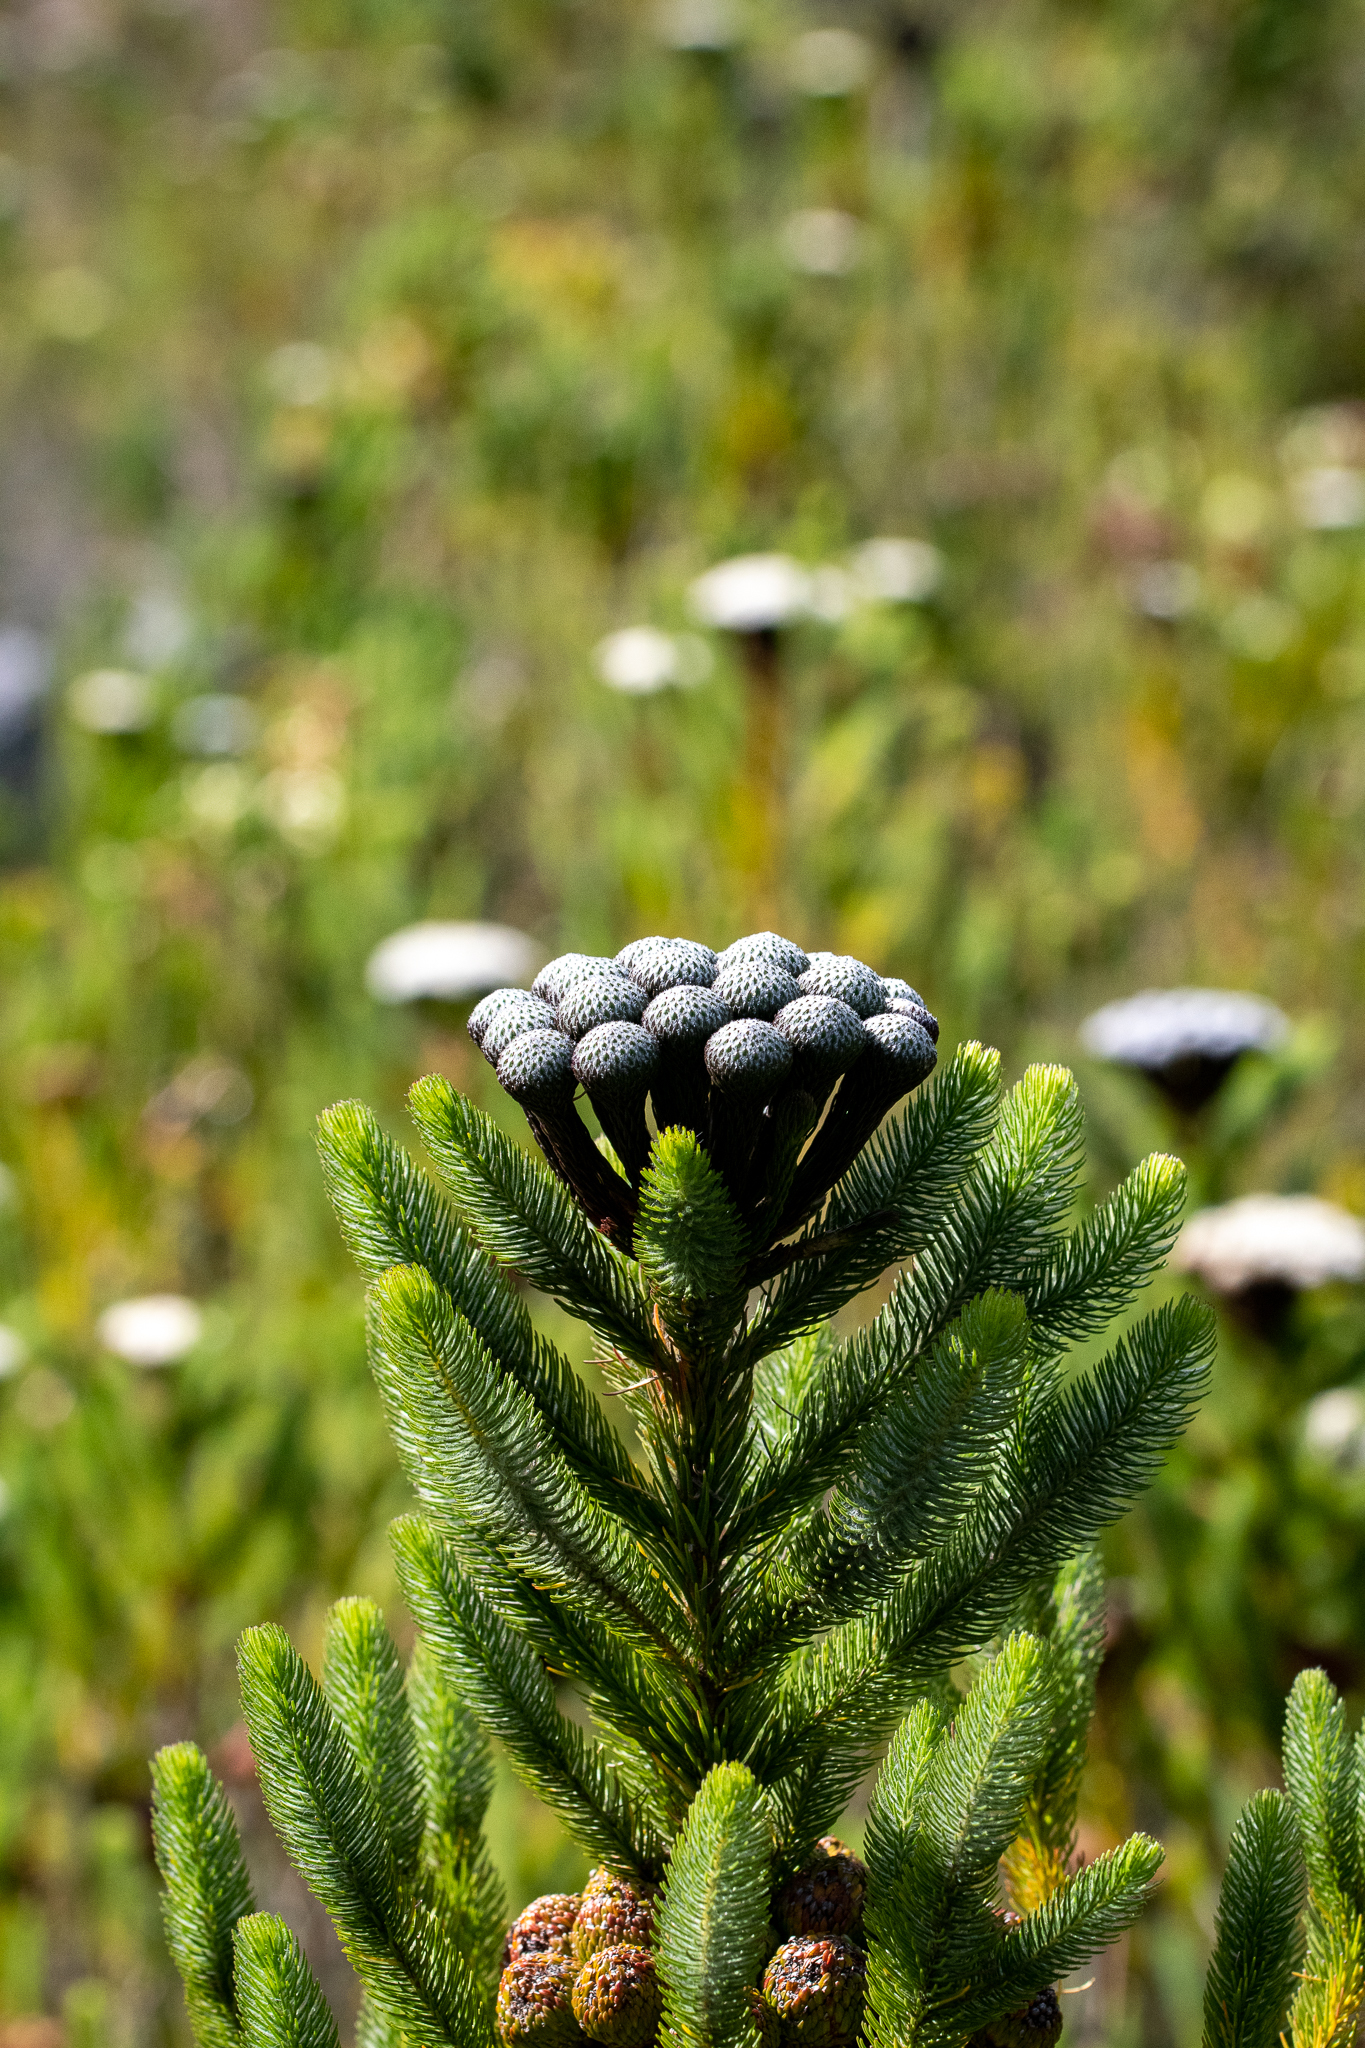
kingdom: Plantae
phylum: Tracheophyta
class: Magnoliopsida
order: Bruniales
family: Bruniaceae
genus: Berzelia
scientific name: Berzelia albiflora
